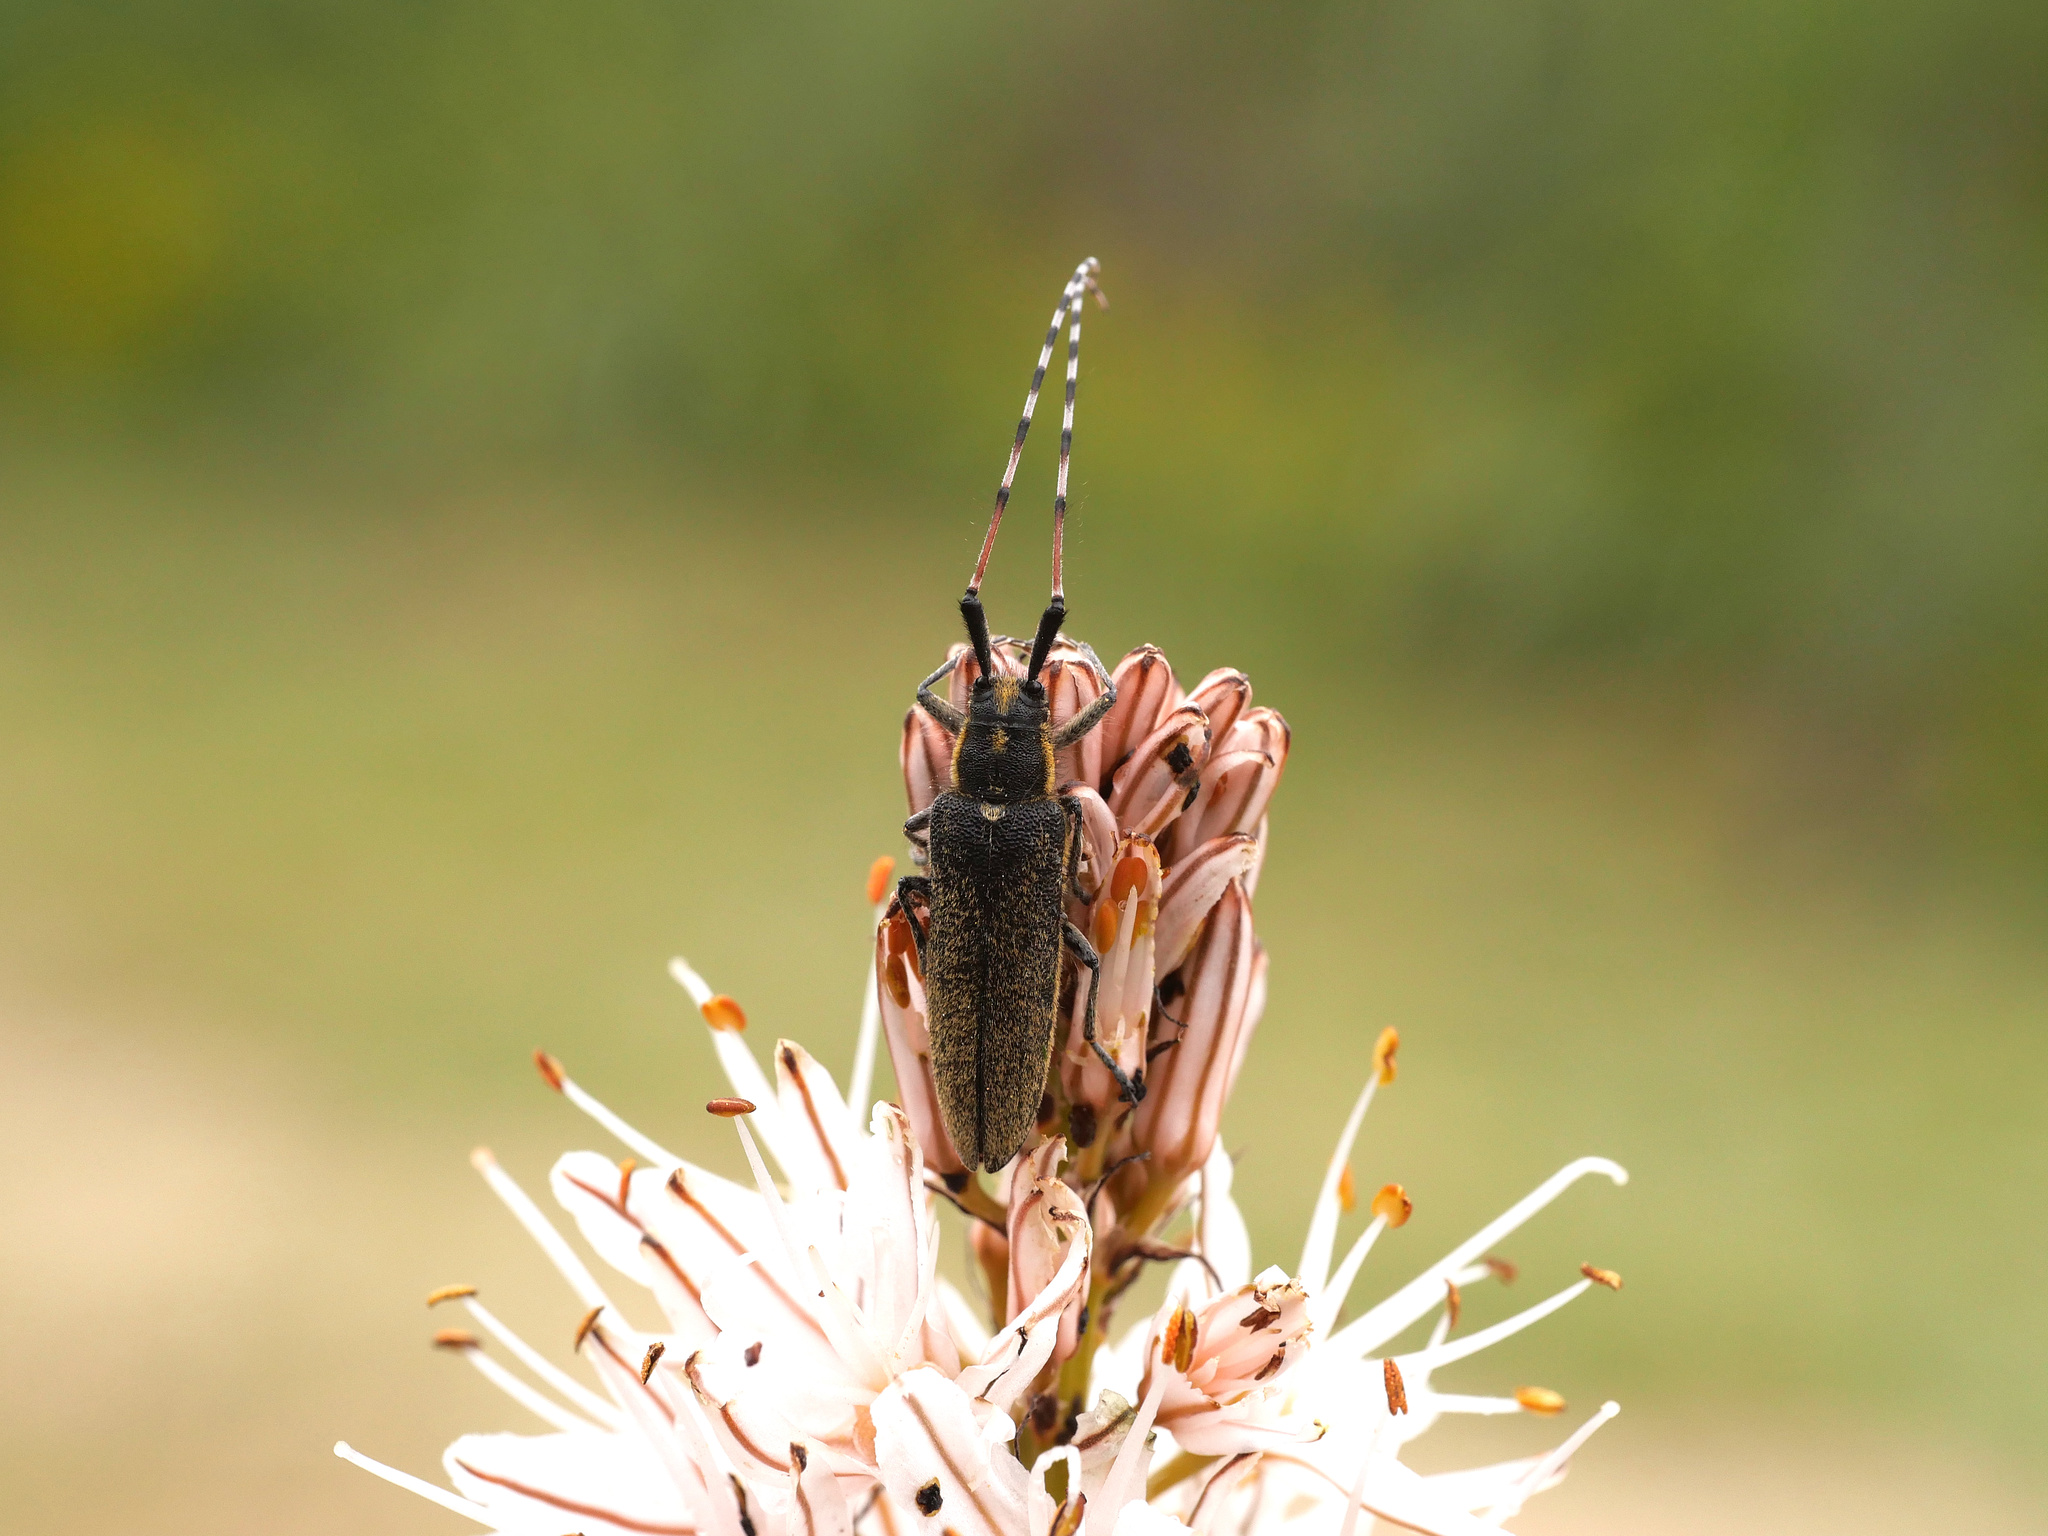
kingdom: Animalia
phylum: Arthropoda
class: Insecta
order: Coleoptera
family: Cerambycidae
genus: Agapanthia
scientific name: Agapanthia asphodeli
